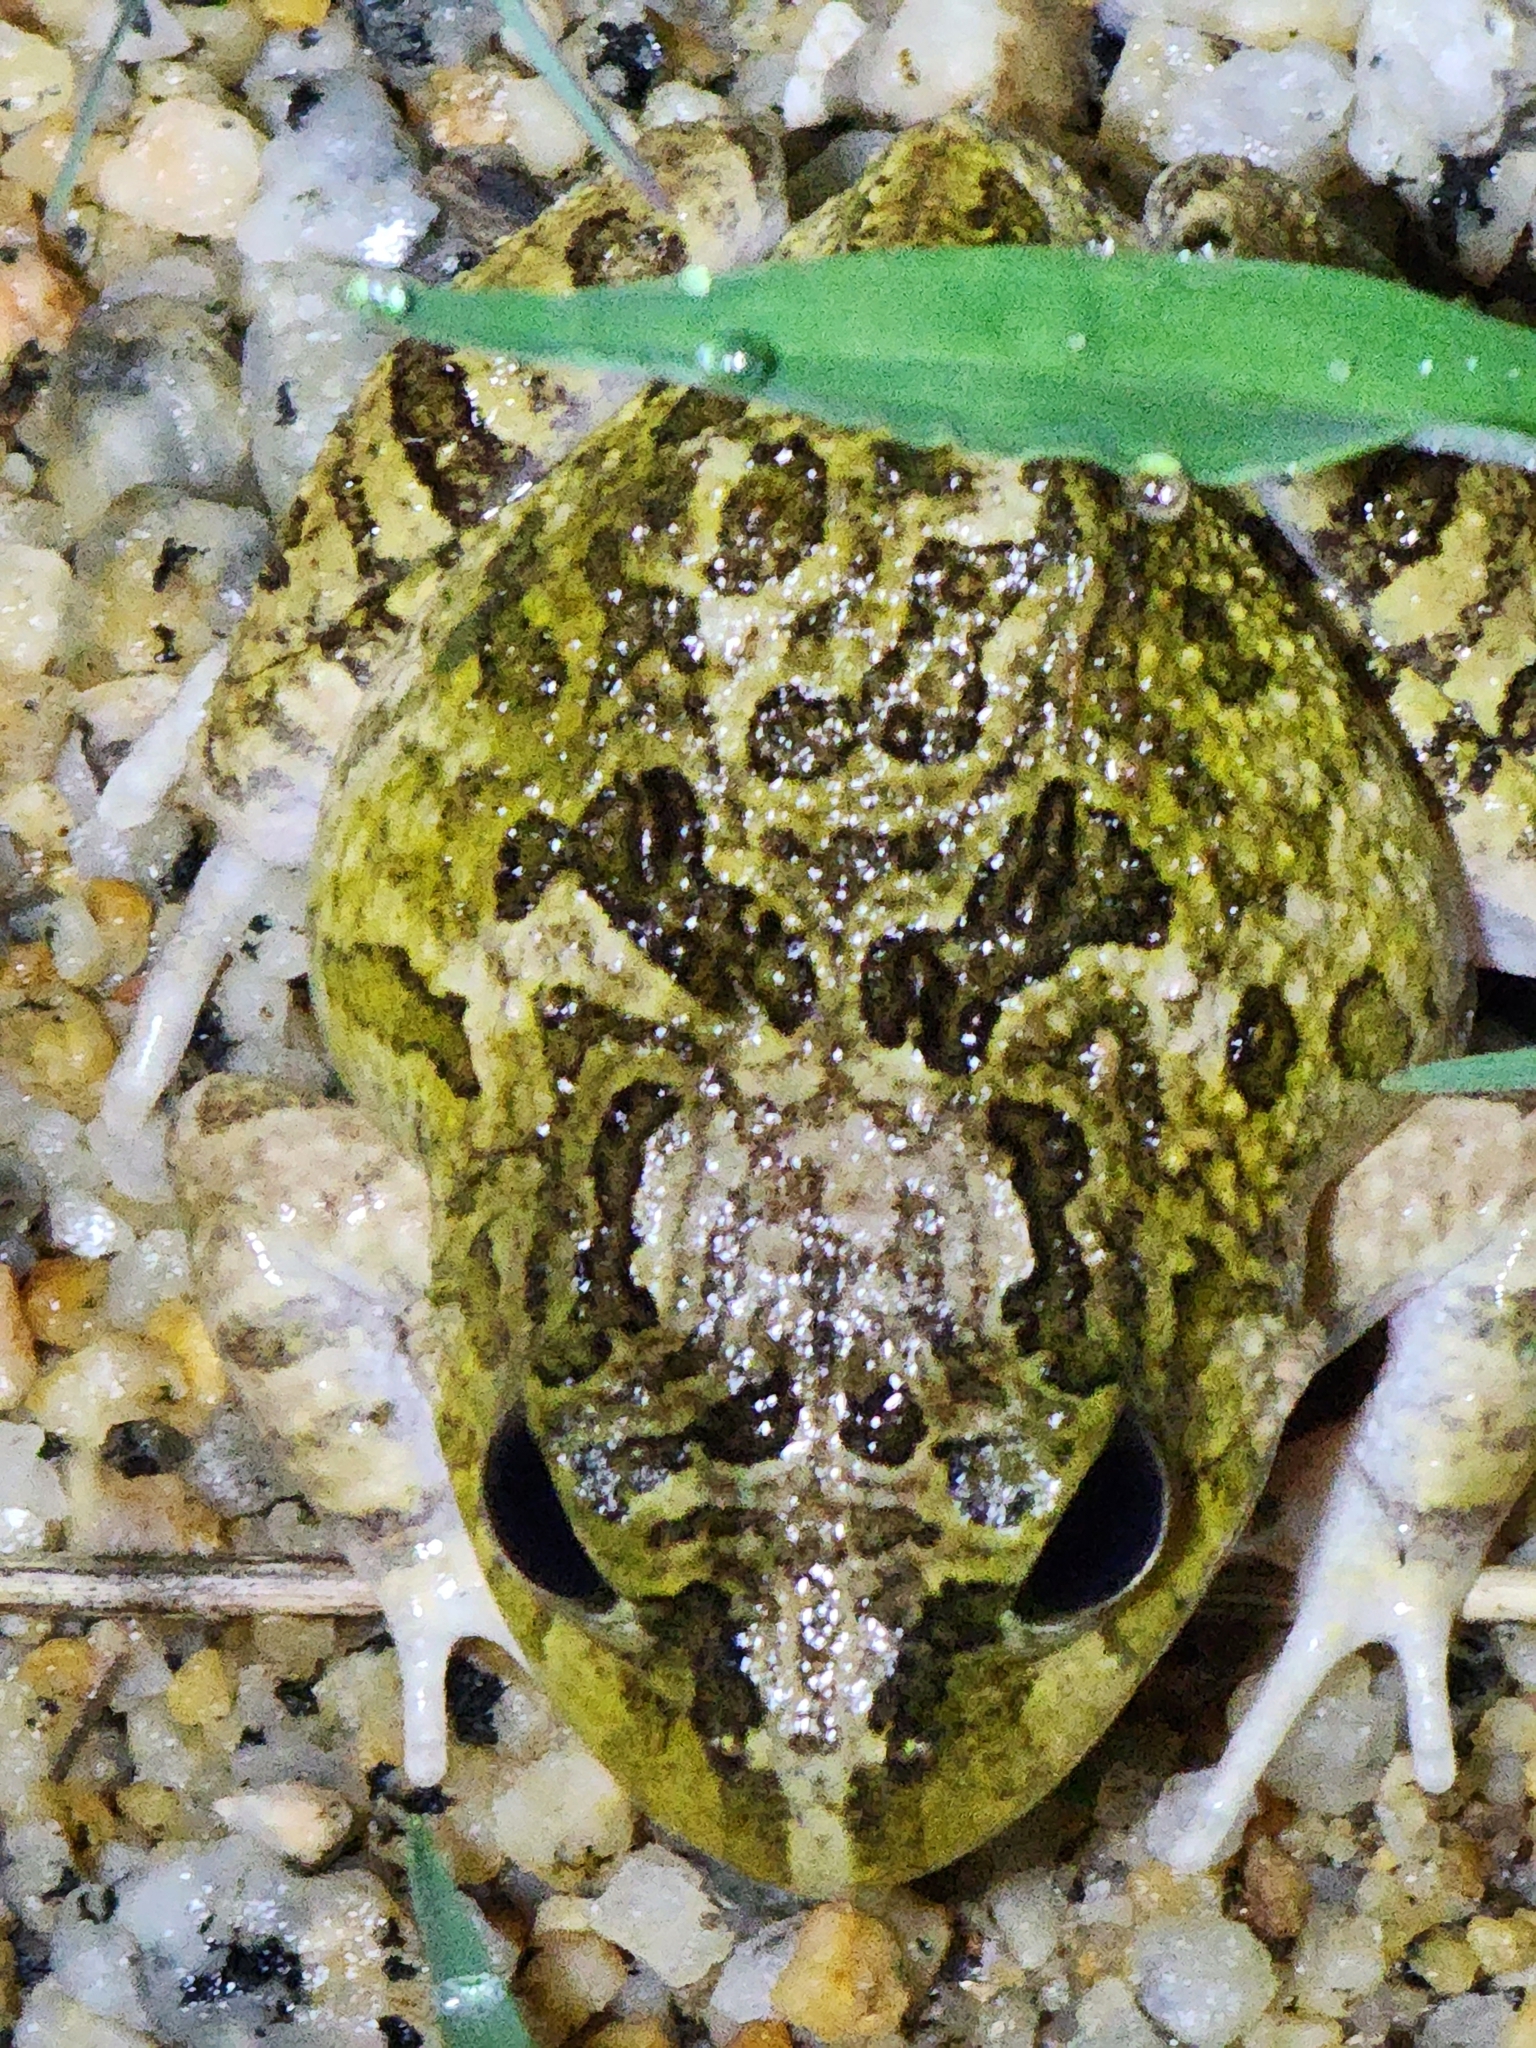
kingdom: Animalia
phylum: Chordata
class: Amphibia
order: Anura
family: Limnodynastidae
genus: Platyplectrum
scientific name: Platyplectrum ornatum
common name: Ornate burrowing frog
